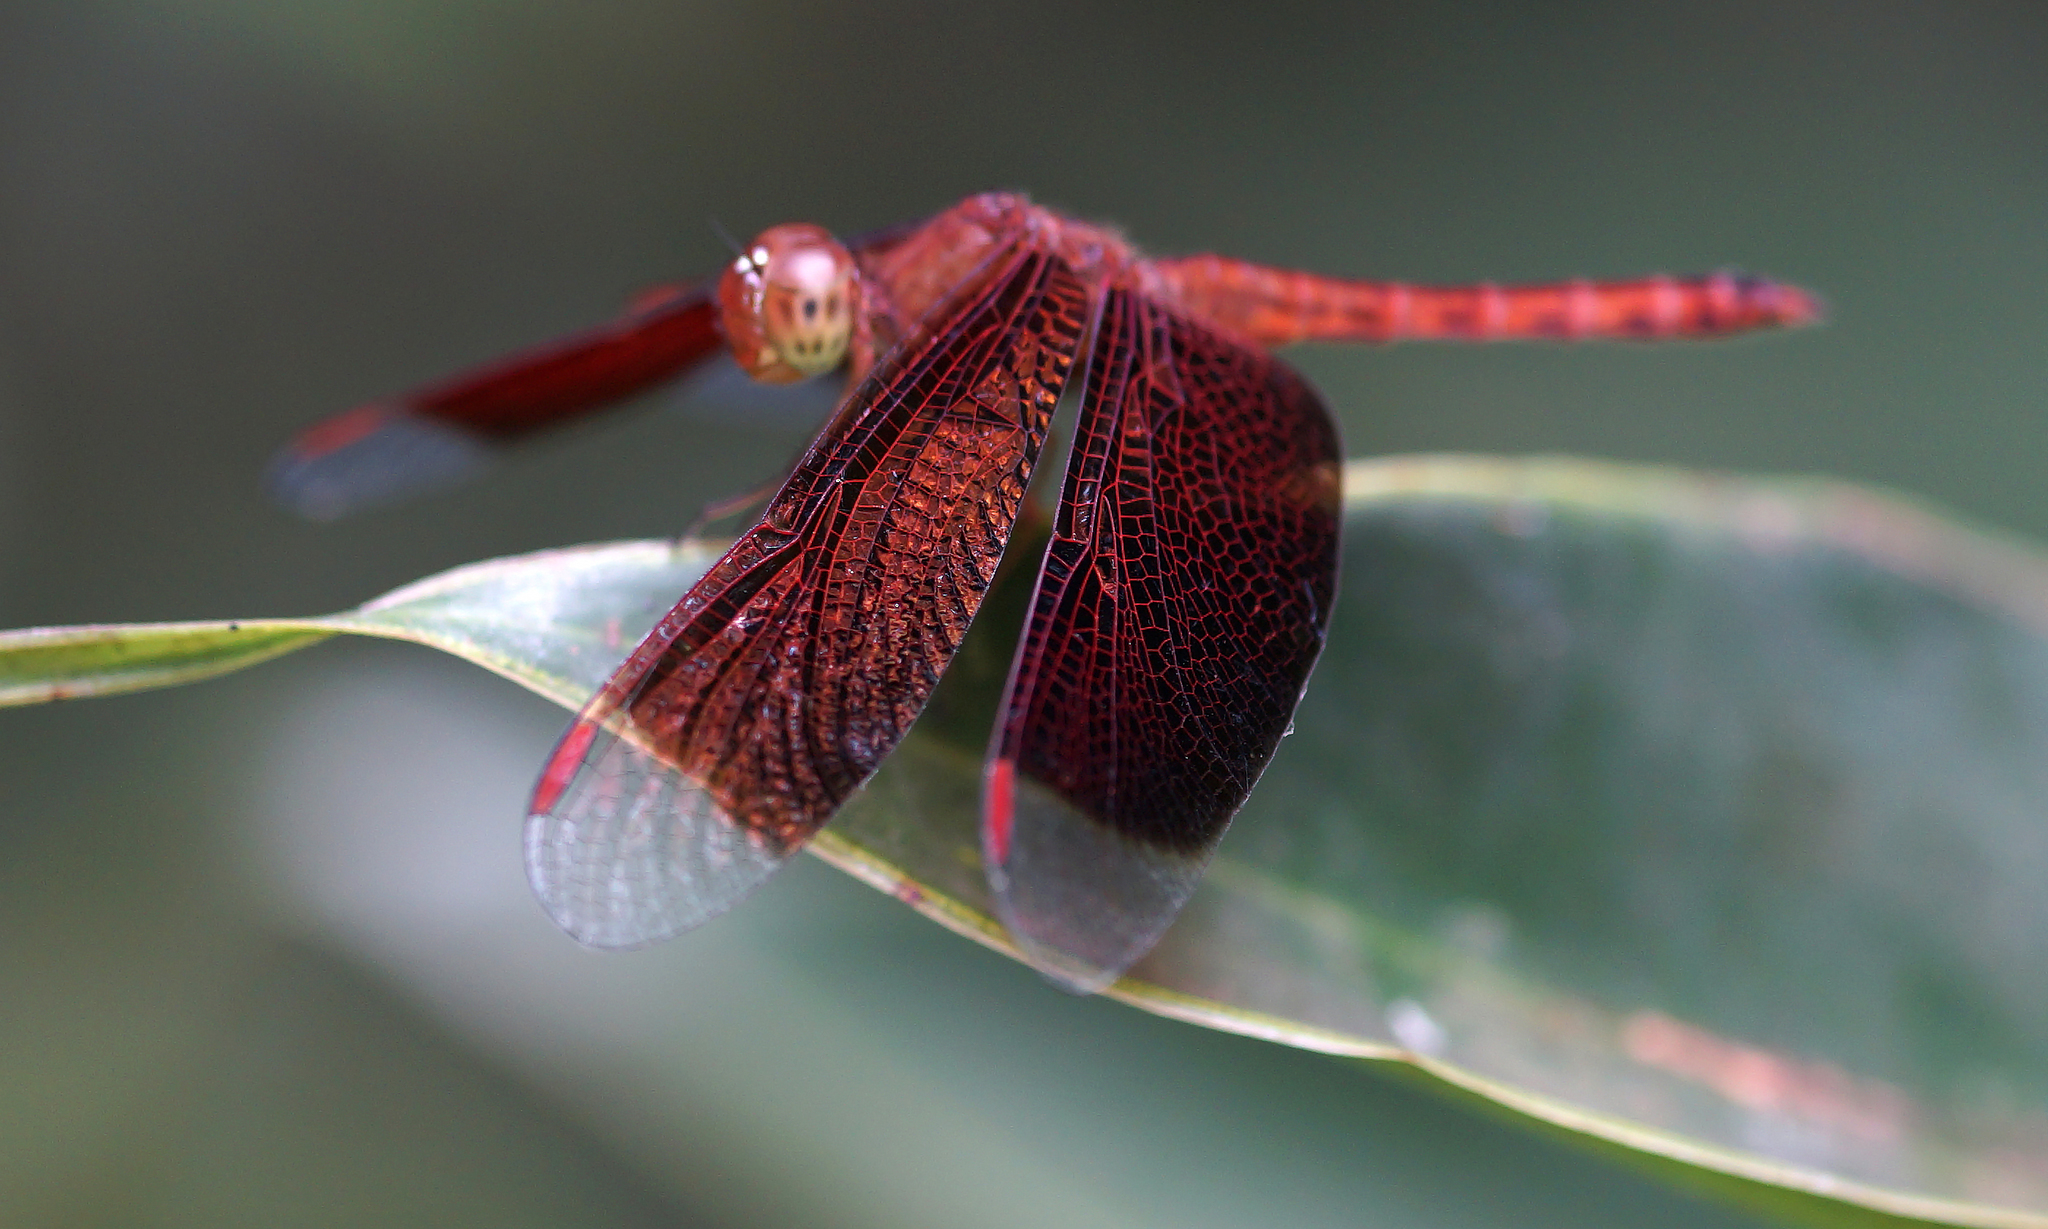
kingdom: Animalia
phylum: Arthropoda
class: Insecta
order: Odonata
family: Libellulidae
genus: Neurothemis
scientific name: Neurothemis fluctuans
